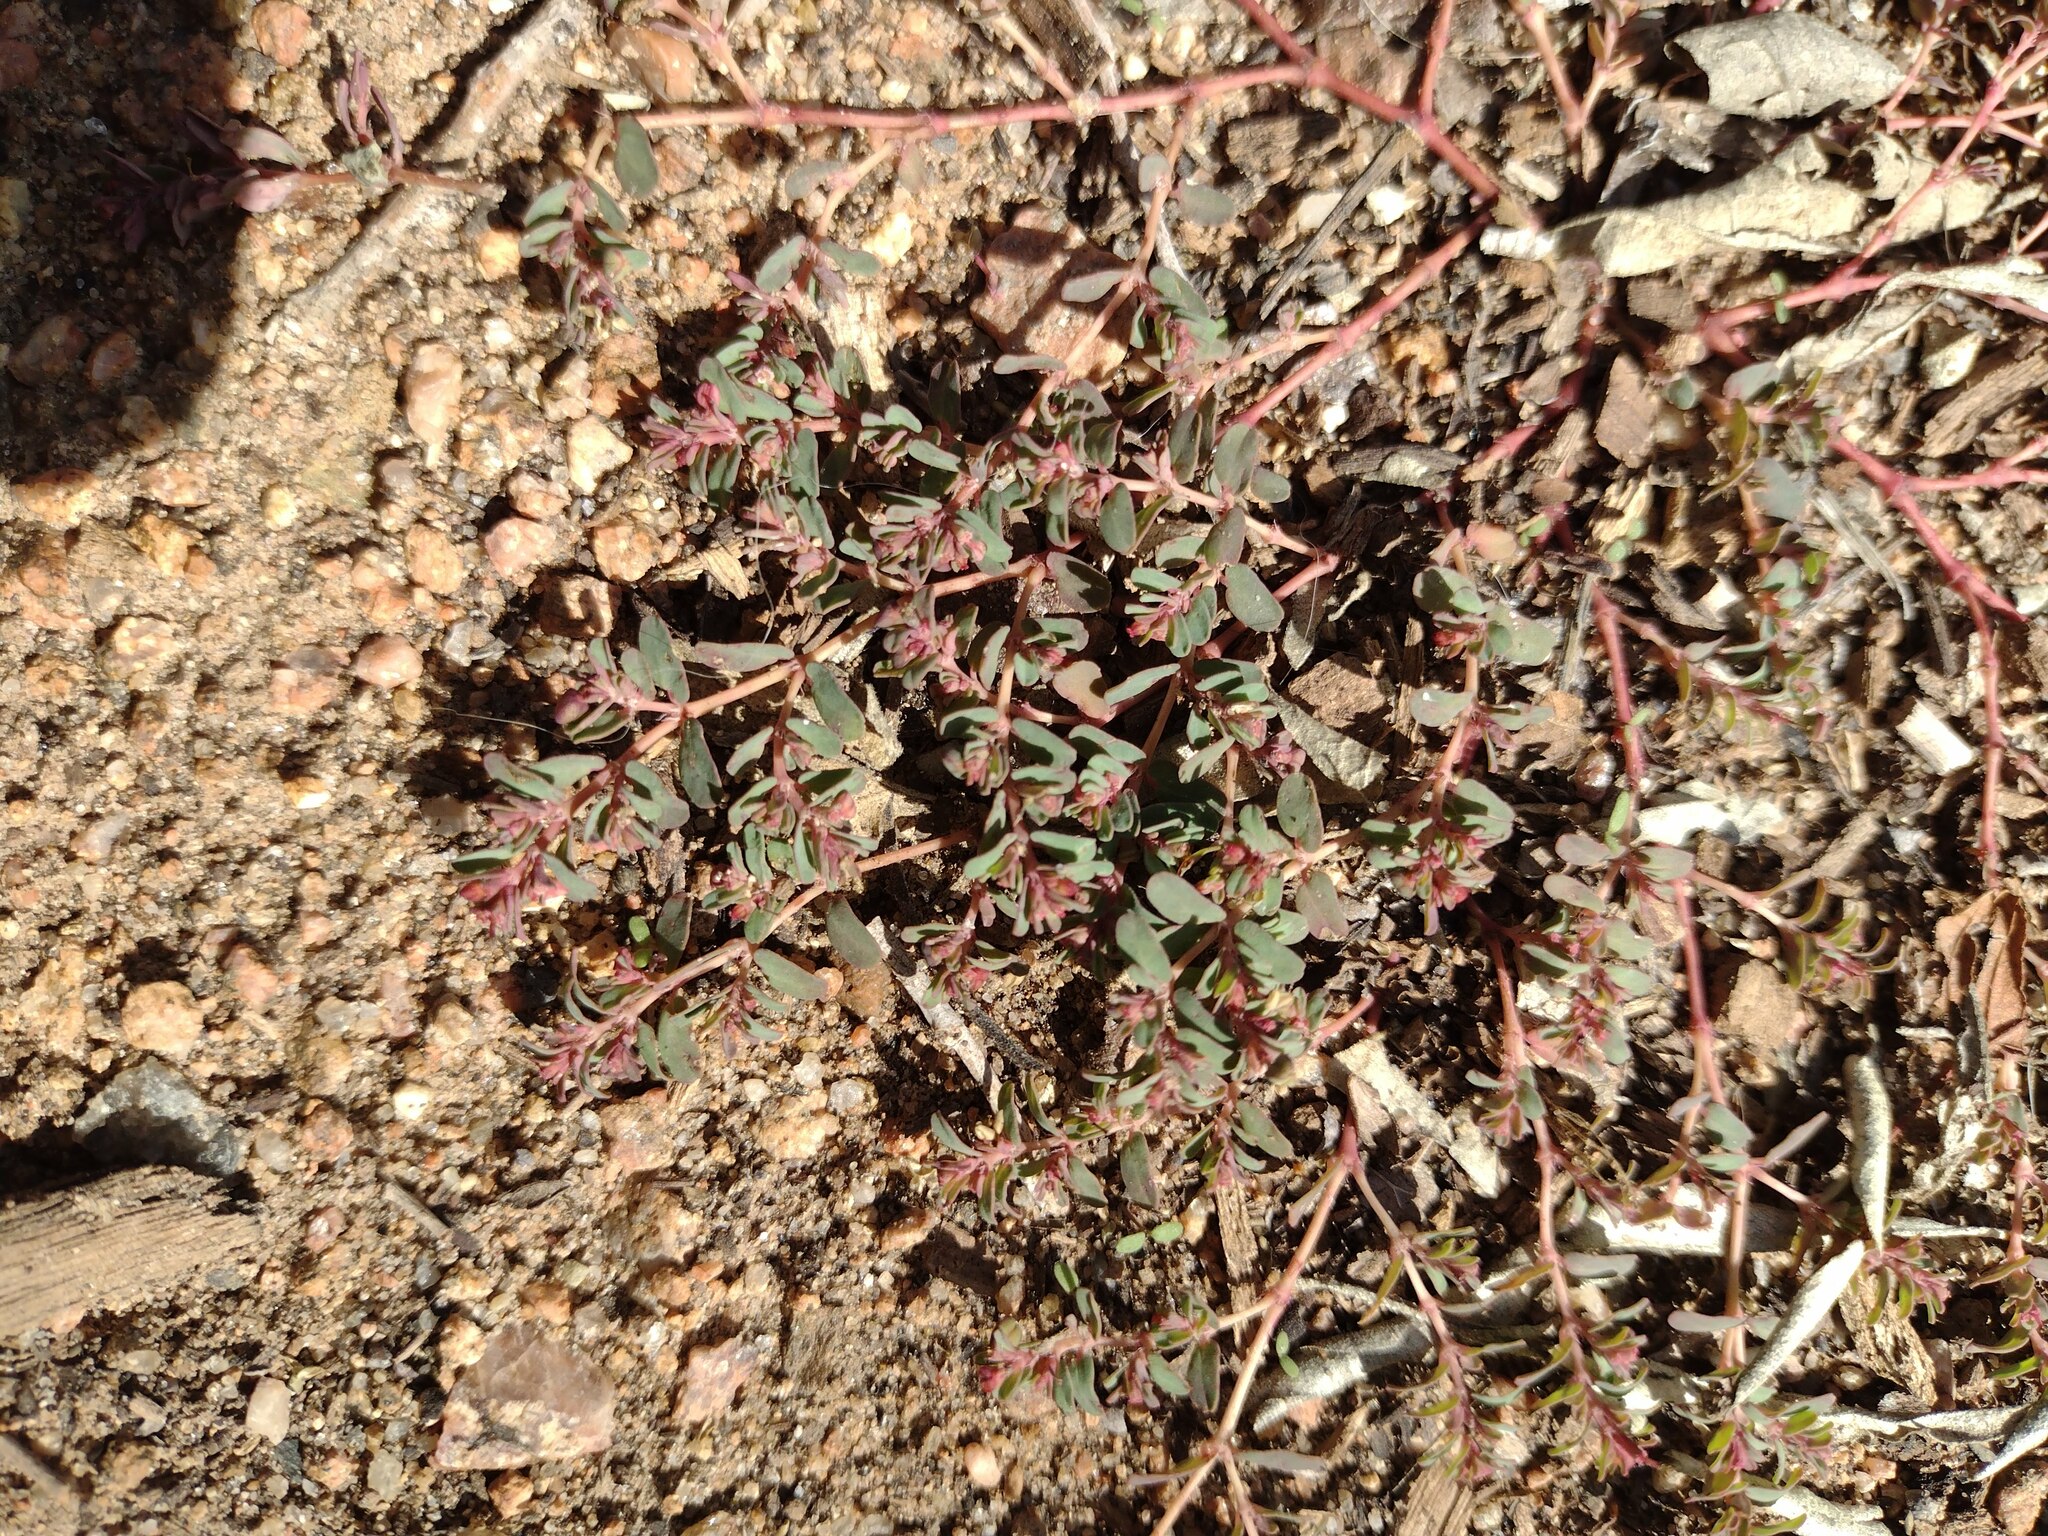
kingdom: Plantae
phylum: Tracheophyta
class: Magnoliopsida
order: Malpighiales
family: Euphorbiaceae
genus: Euphorbia
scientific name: Euphorbia serpillifolia
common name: Thyme-leaf spurge
